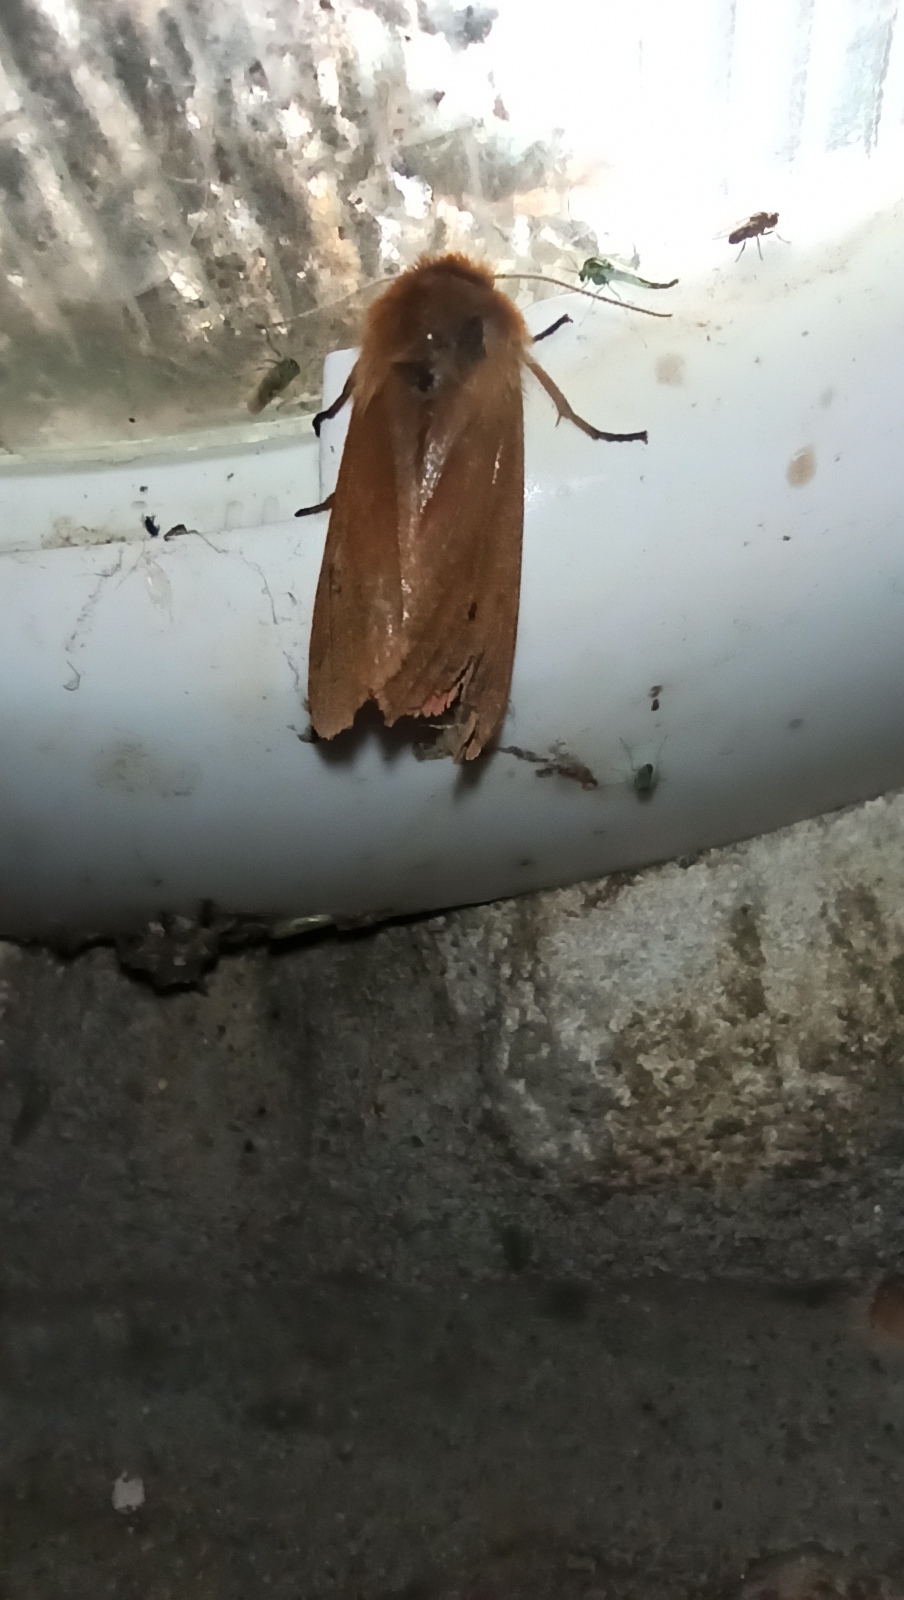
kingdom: Animalia
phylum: Arthropoda
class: Insecta
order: Lepidoptera
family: Erebidae
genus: Phragmatobia
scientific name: Phragmatobia fuliginosa
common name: Ruby tiger
